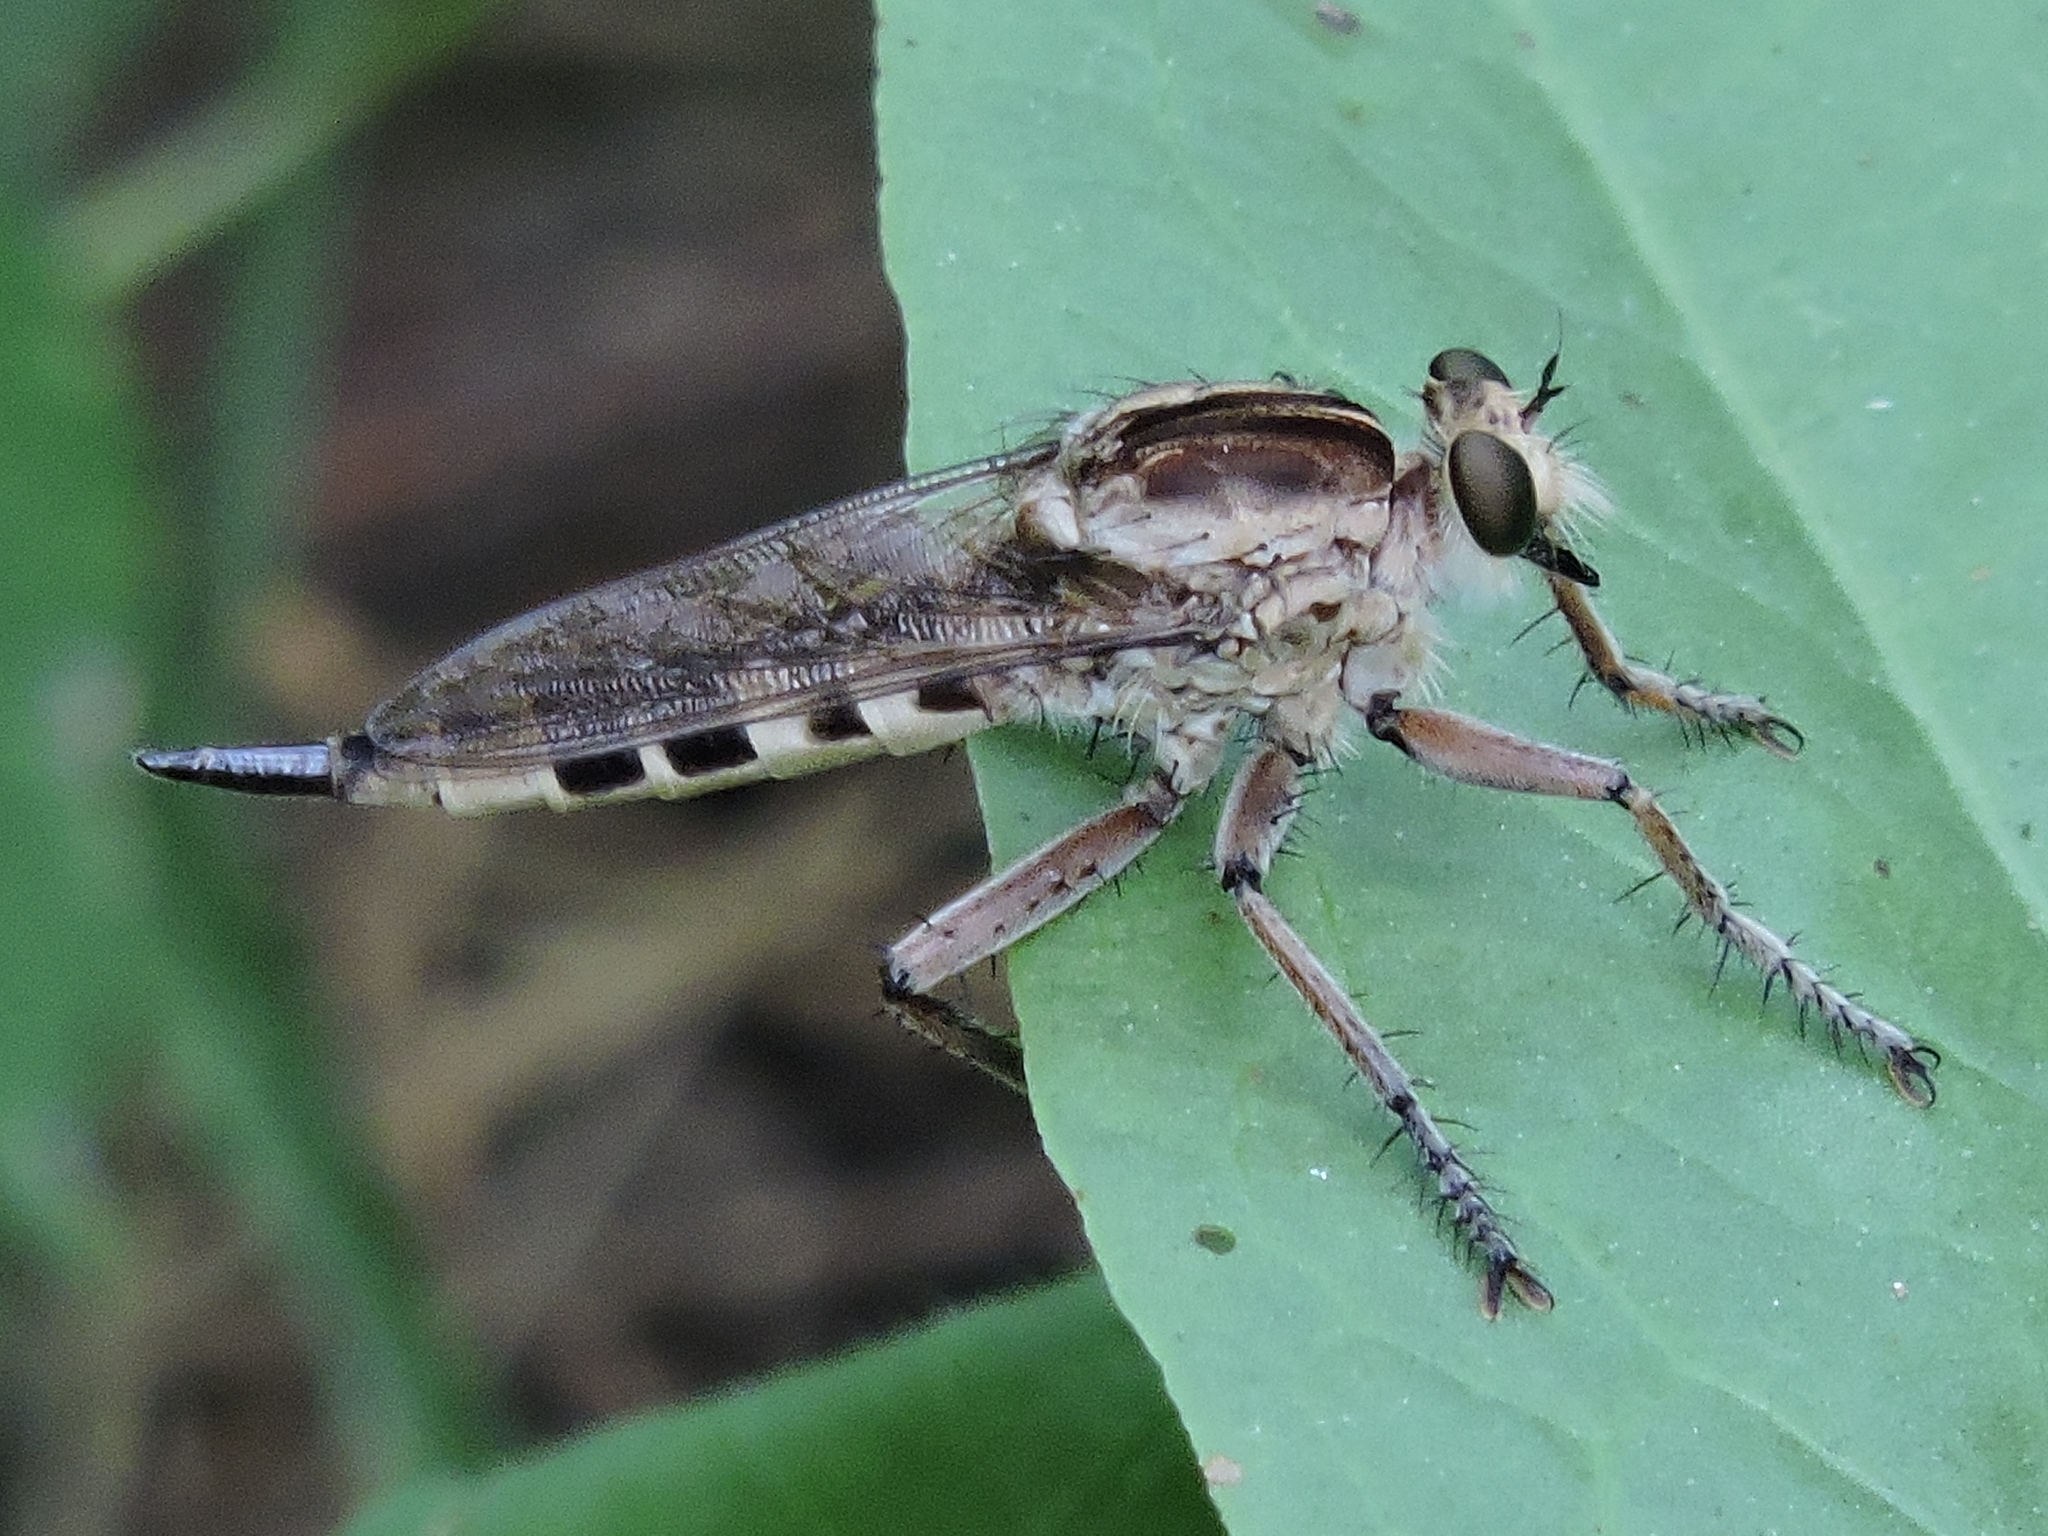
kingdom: Animalia
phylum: Arthropoda
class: Insecta
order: Diptera
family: Asilidae
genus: Triorla
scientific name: Triorla interrupta
